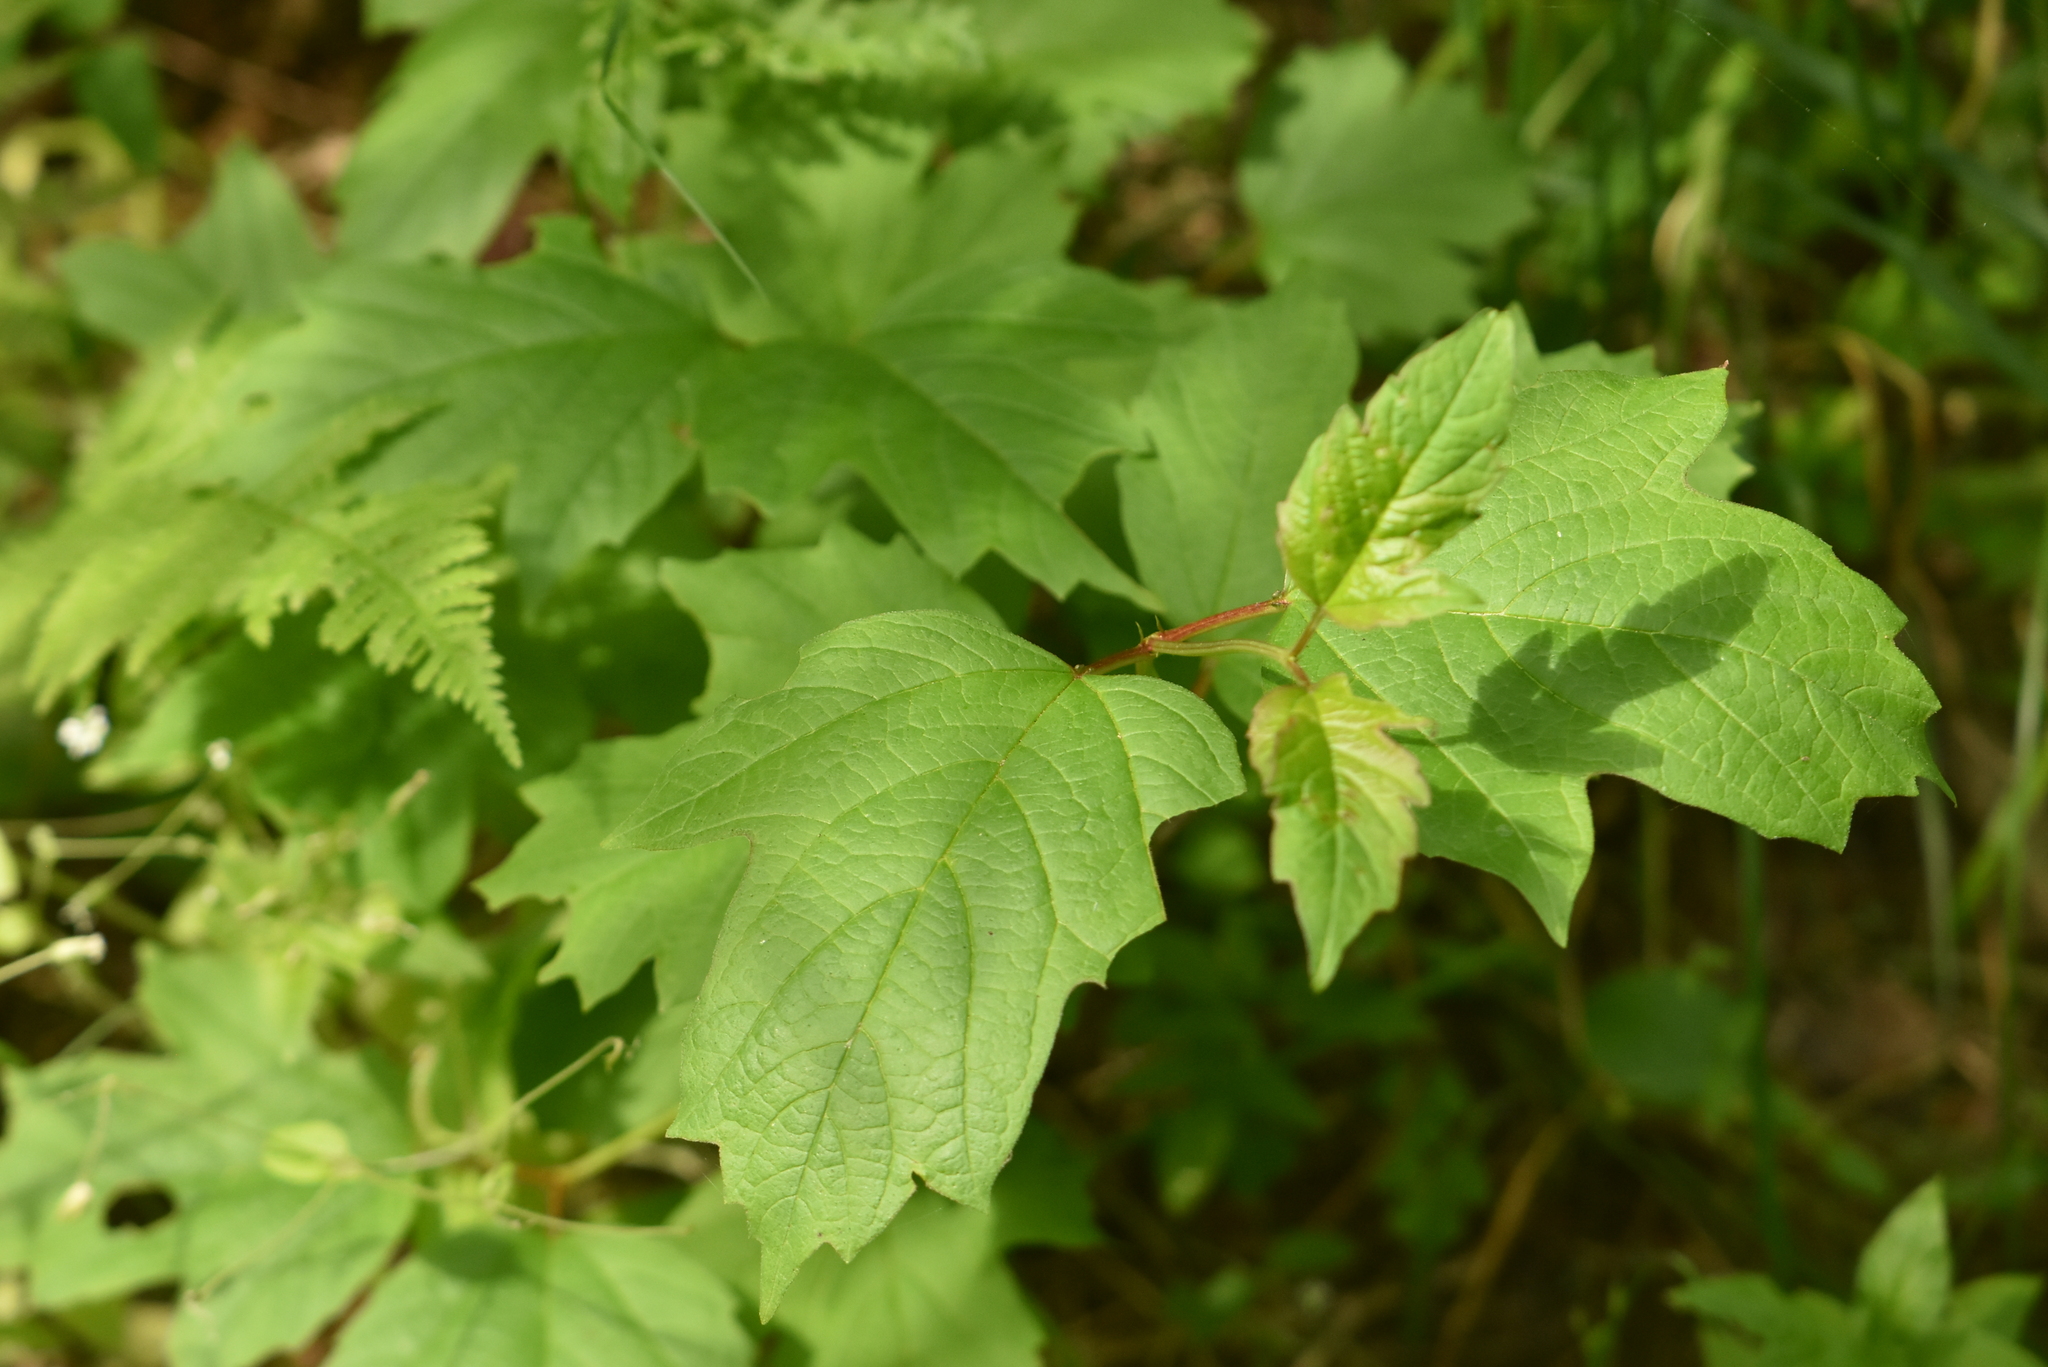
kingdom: Plantae
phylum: Tracheophyta
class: Magnoliopsida
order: Dipsacales
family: Viburnaceae
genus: Viburnum
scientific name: Viburnum opulus
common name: Guelder-rose
